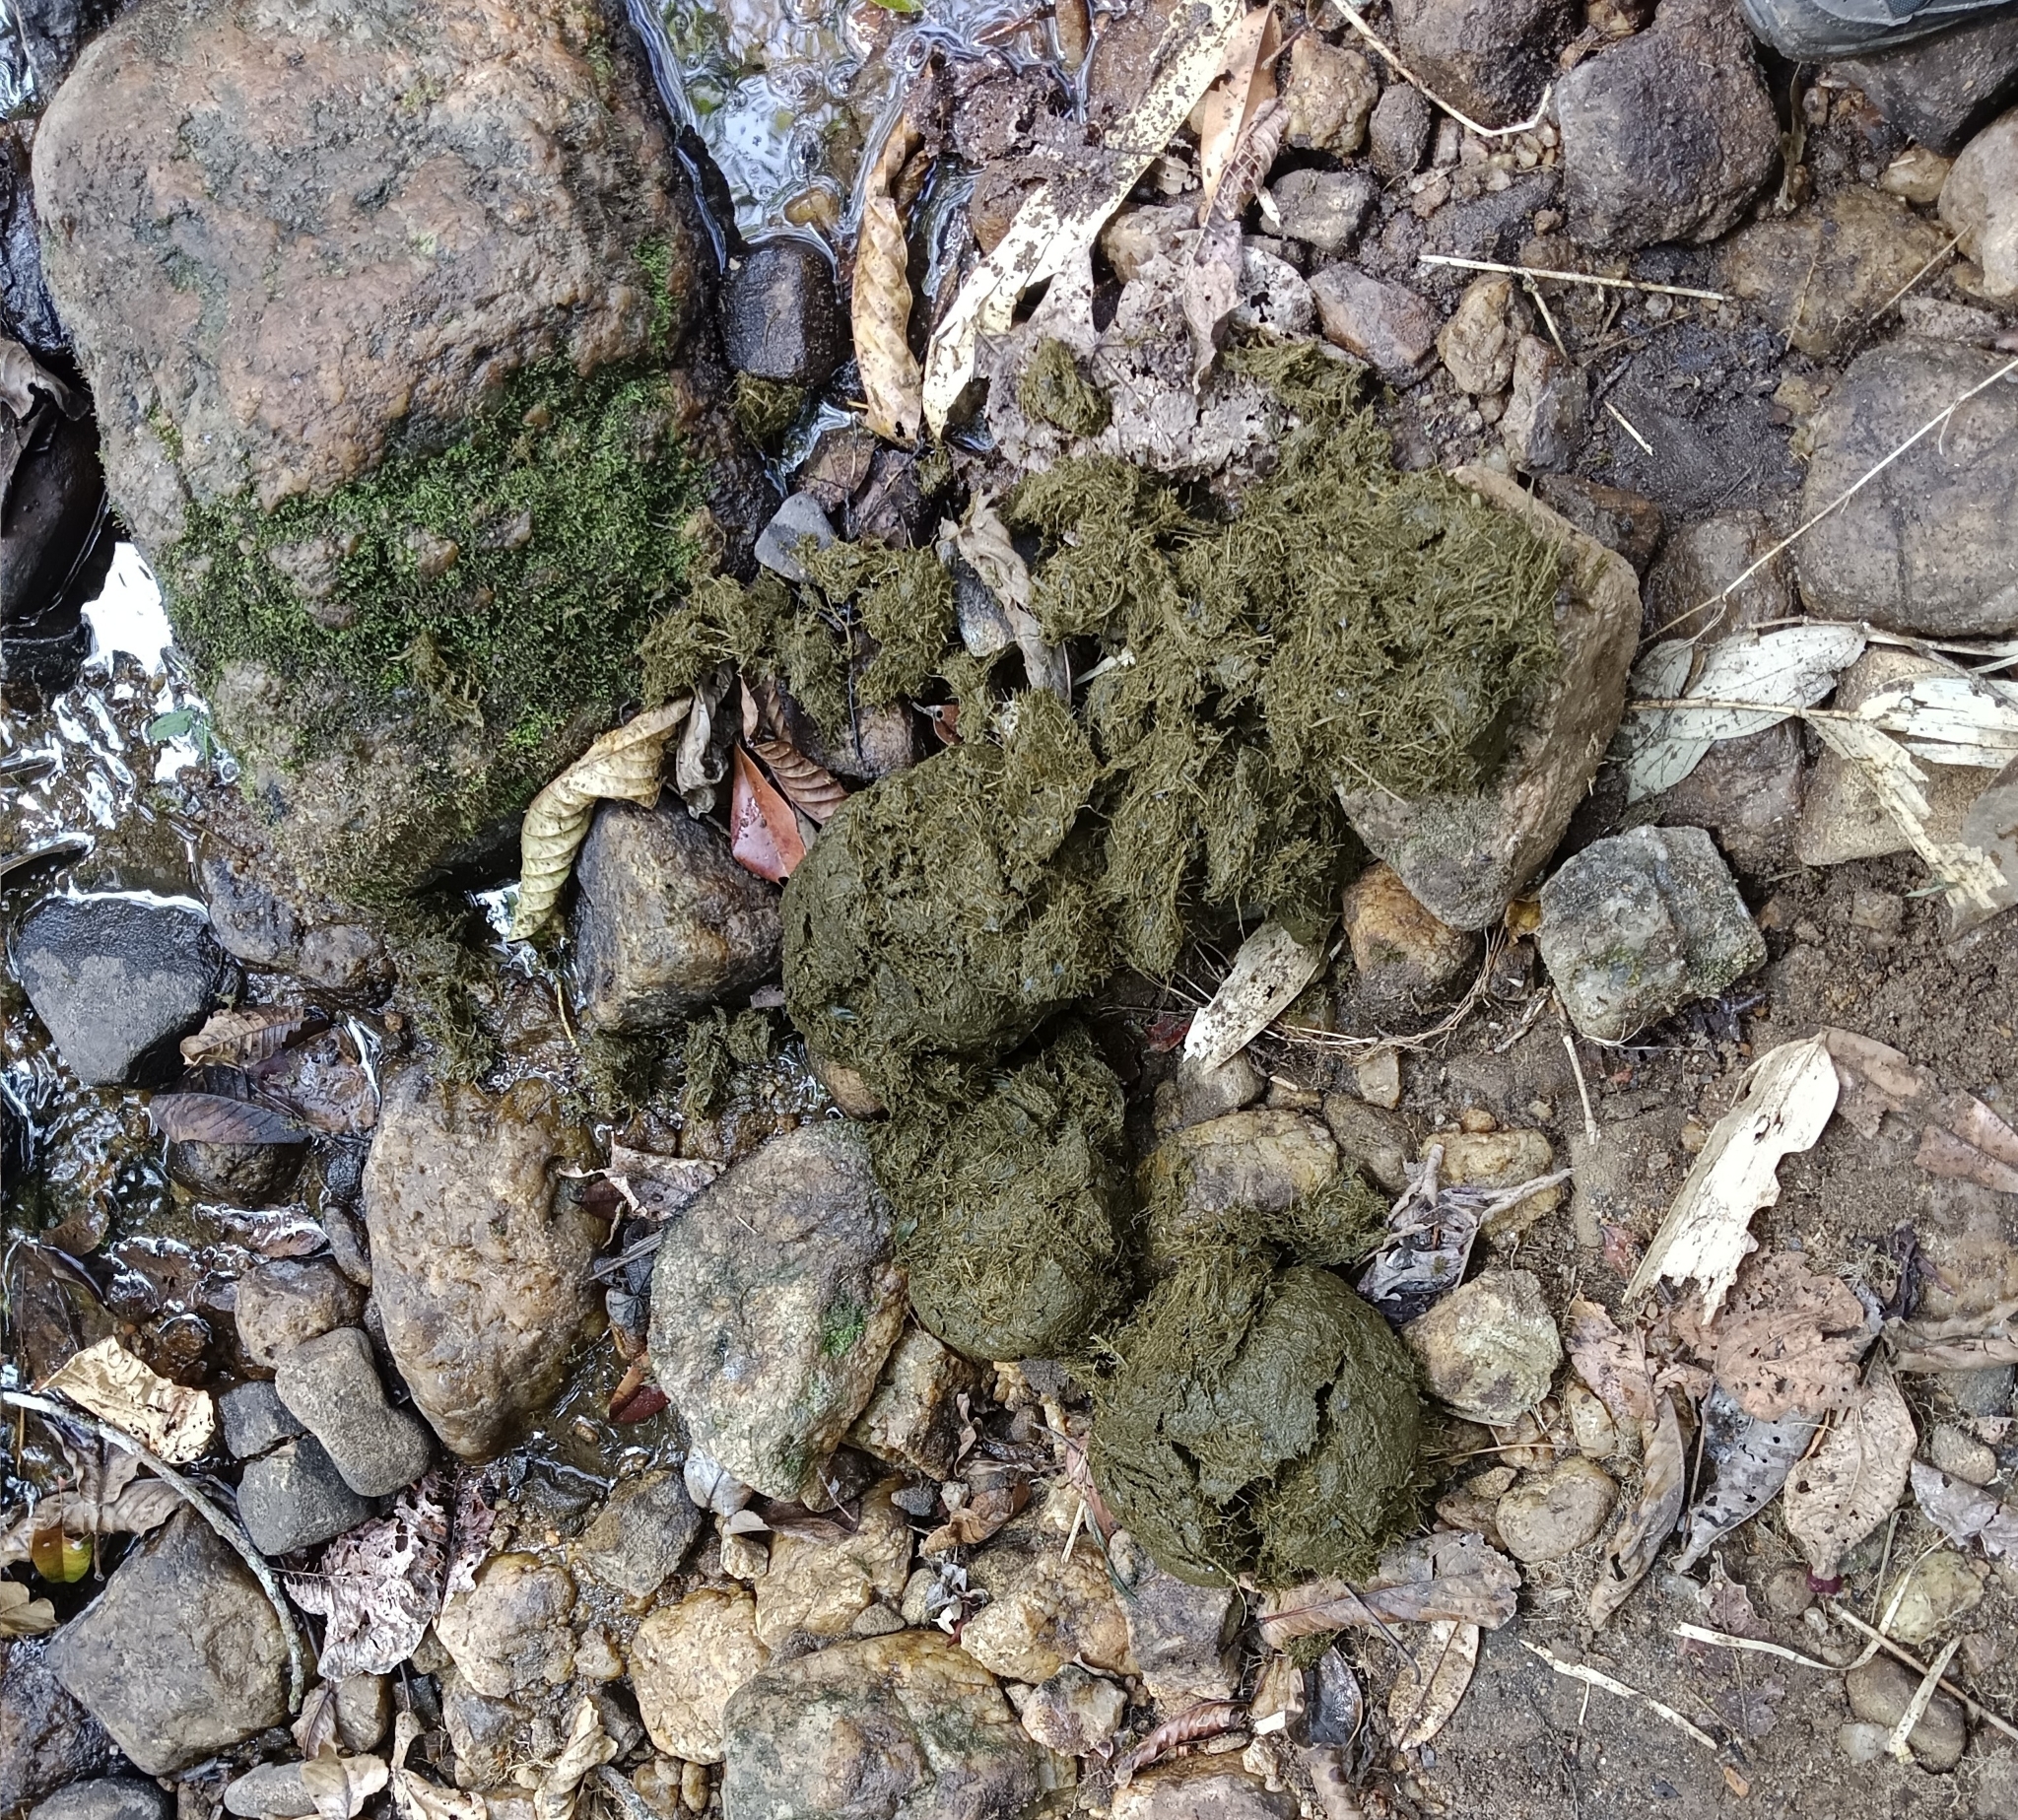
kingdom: Animalia
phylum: Chordata
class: Mammalia
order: Proboscidea
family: Elephantidae
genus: Elephas
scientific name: Elephas maximus
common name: Asian elephant
